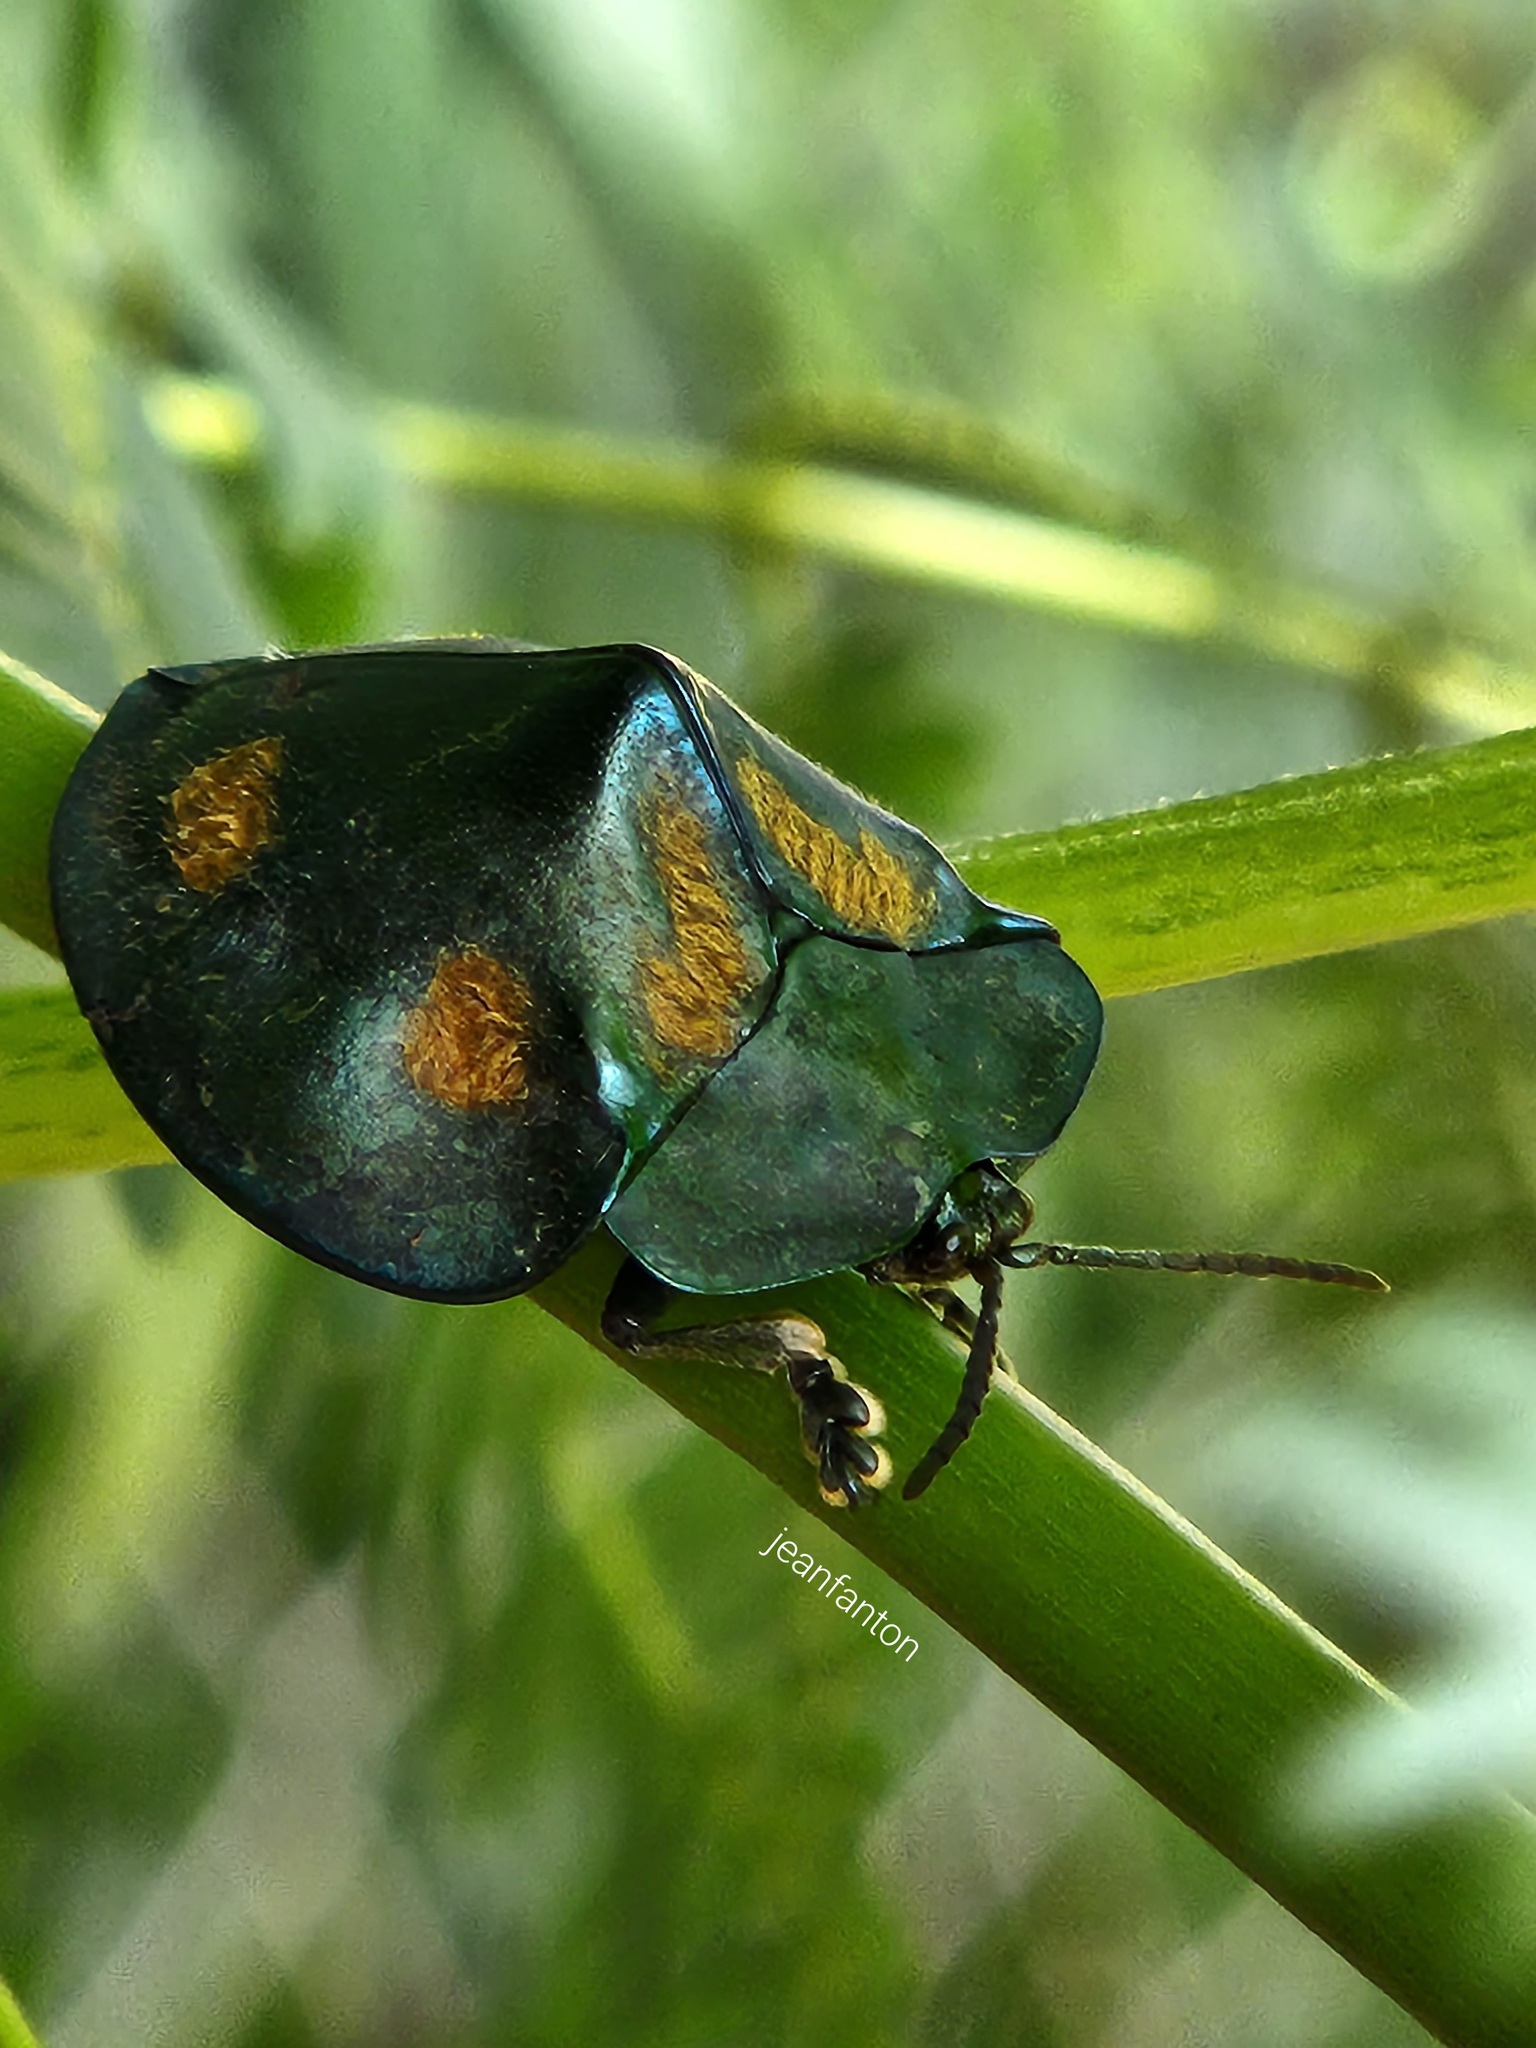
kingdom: Animalia
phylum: Arthropoda
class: Insecta
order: Coleoptera
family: Chrysomelidae
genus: Stolas
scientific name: Stolas chalybaea
